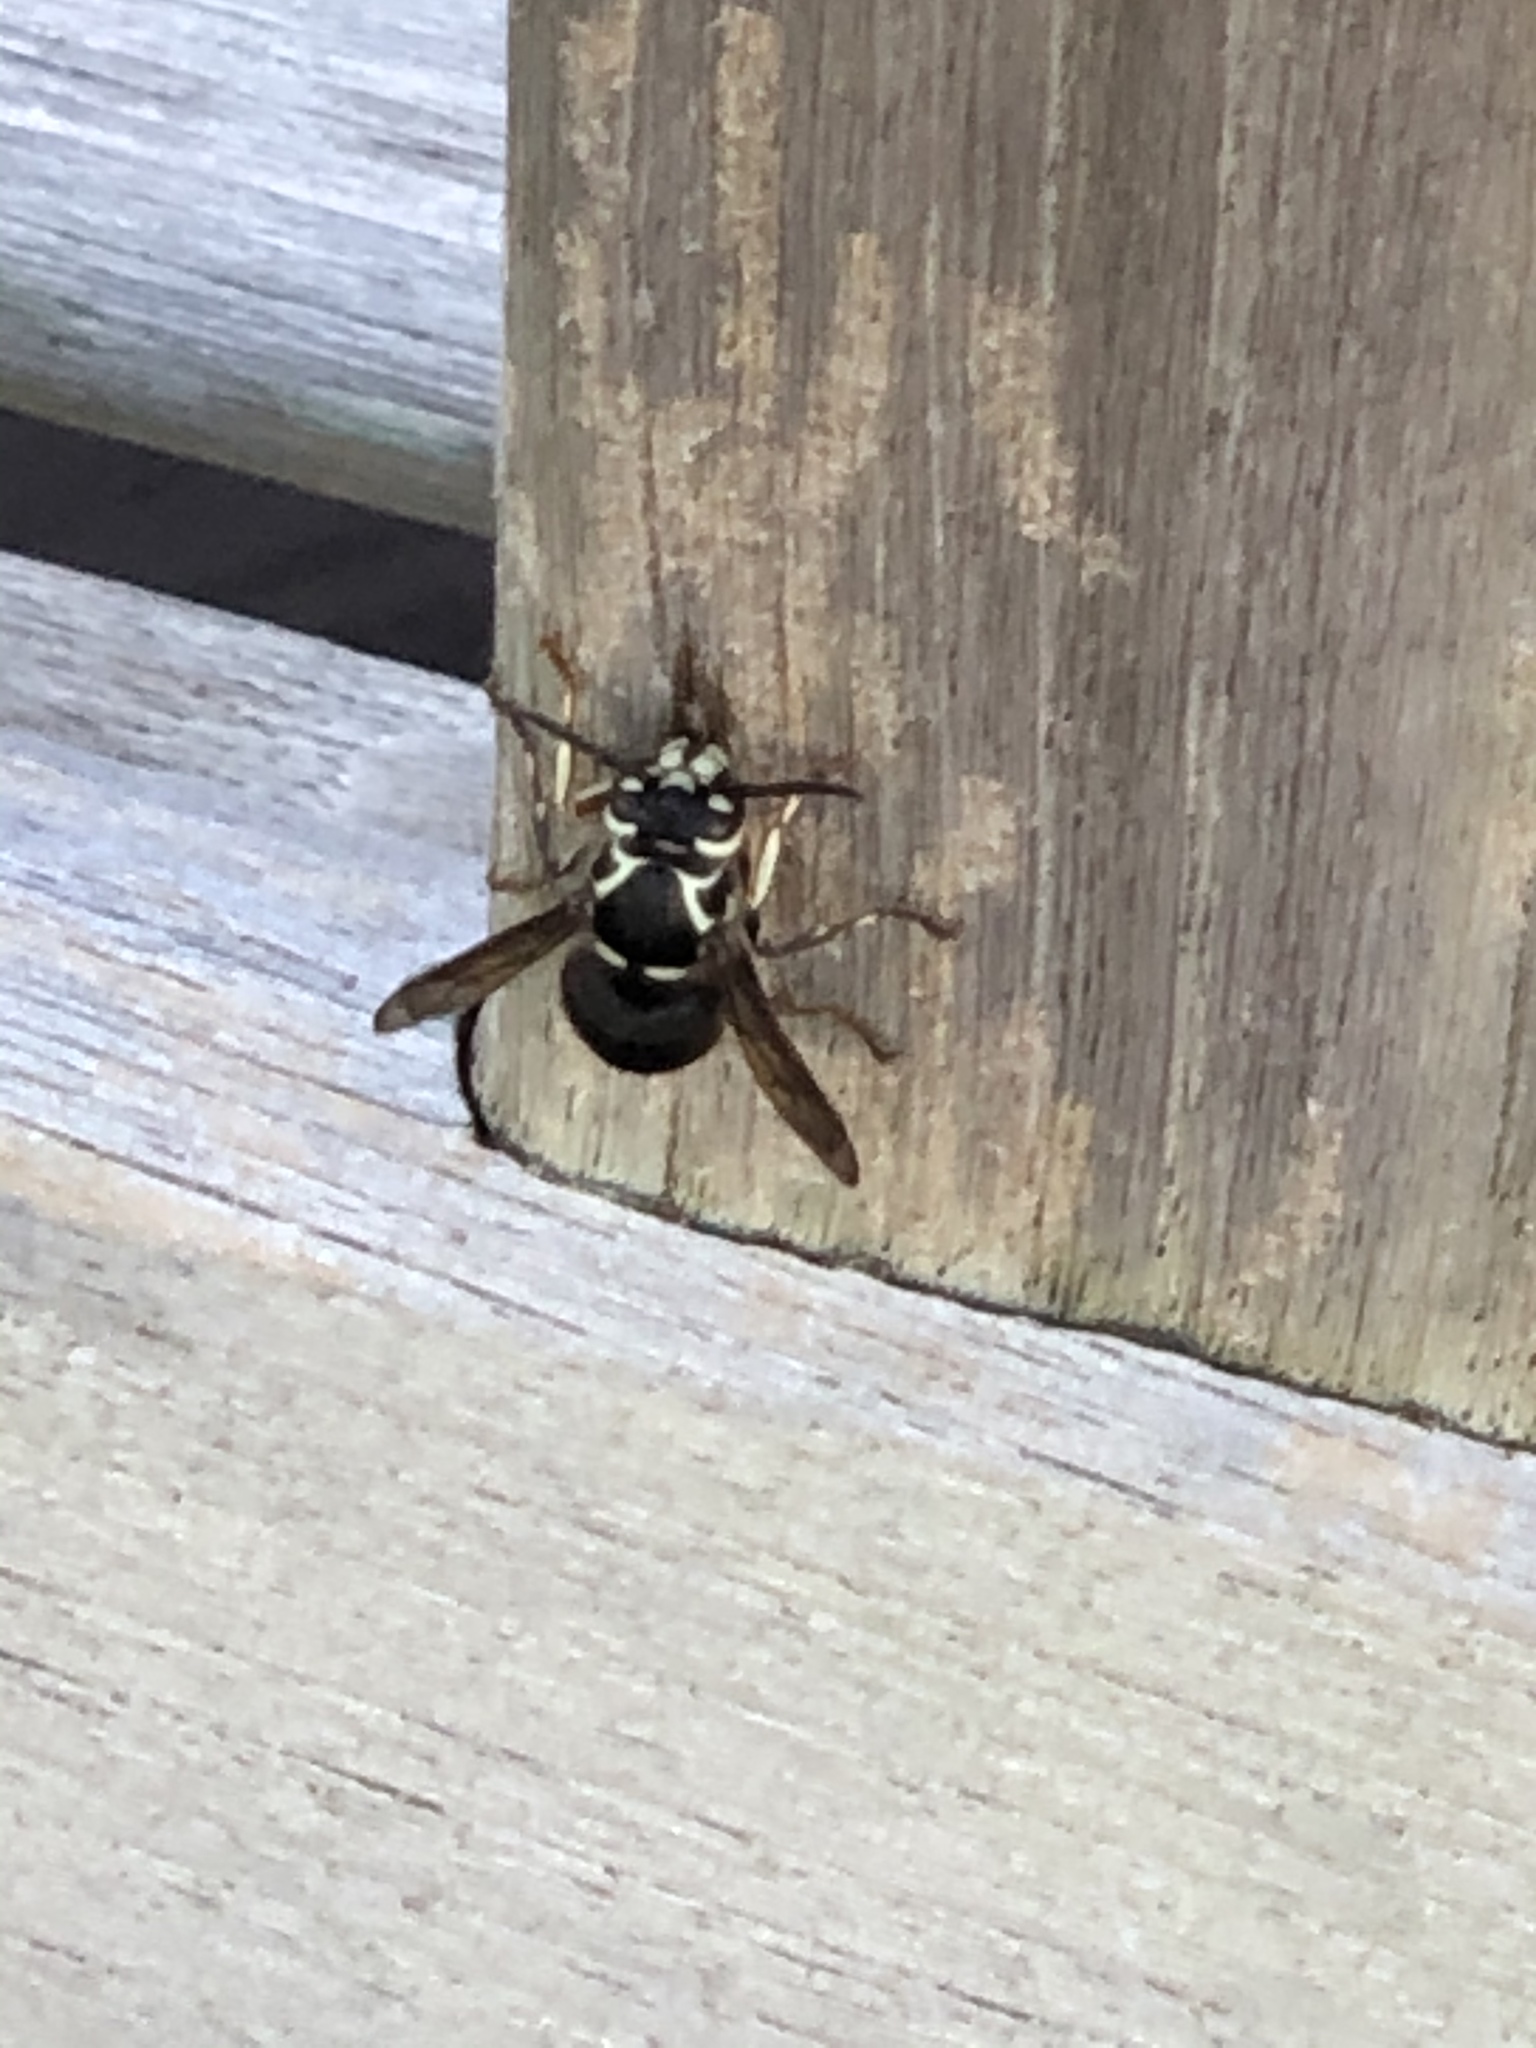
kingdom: Animalia
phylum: Arthropoda
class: Insecta
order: Hymenoptera
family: Vespidae
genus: Dolichovespula
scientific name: Dolichovespula maculata
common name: Bald-faced hornet
